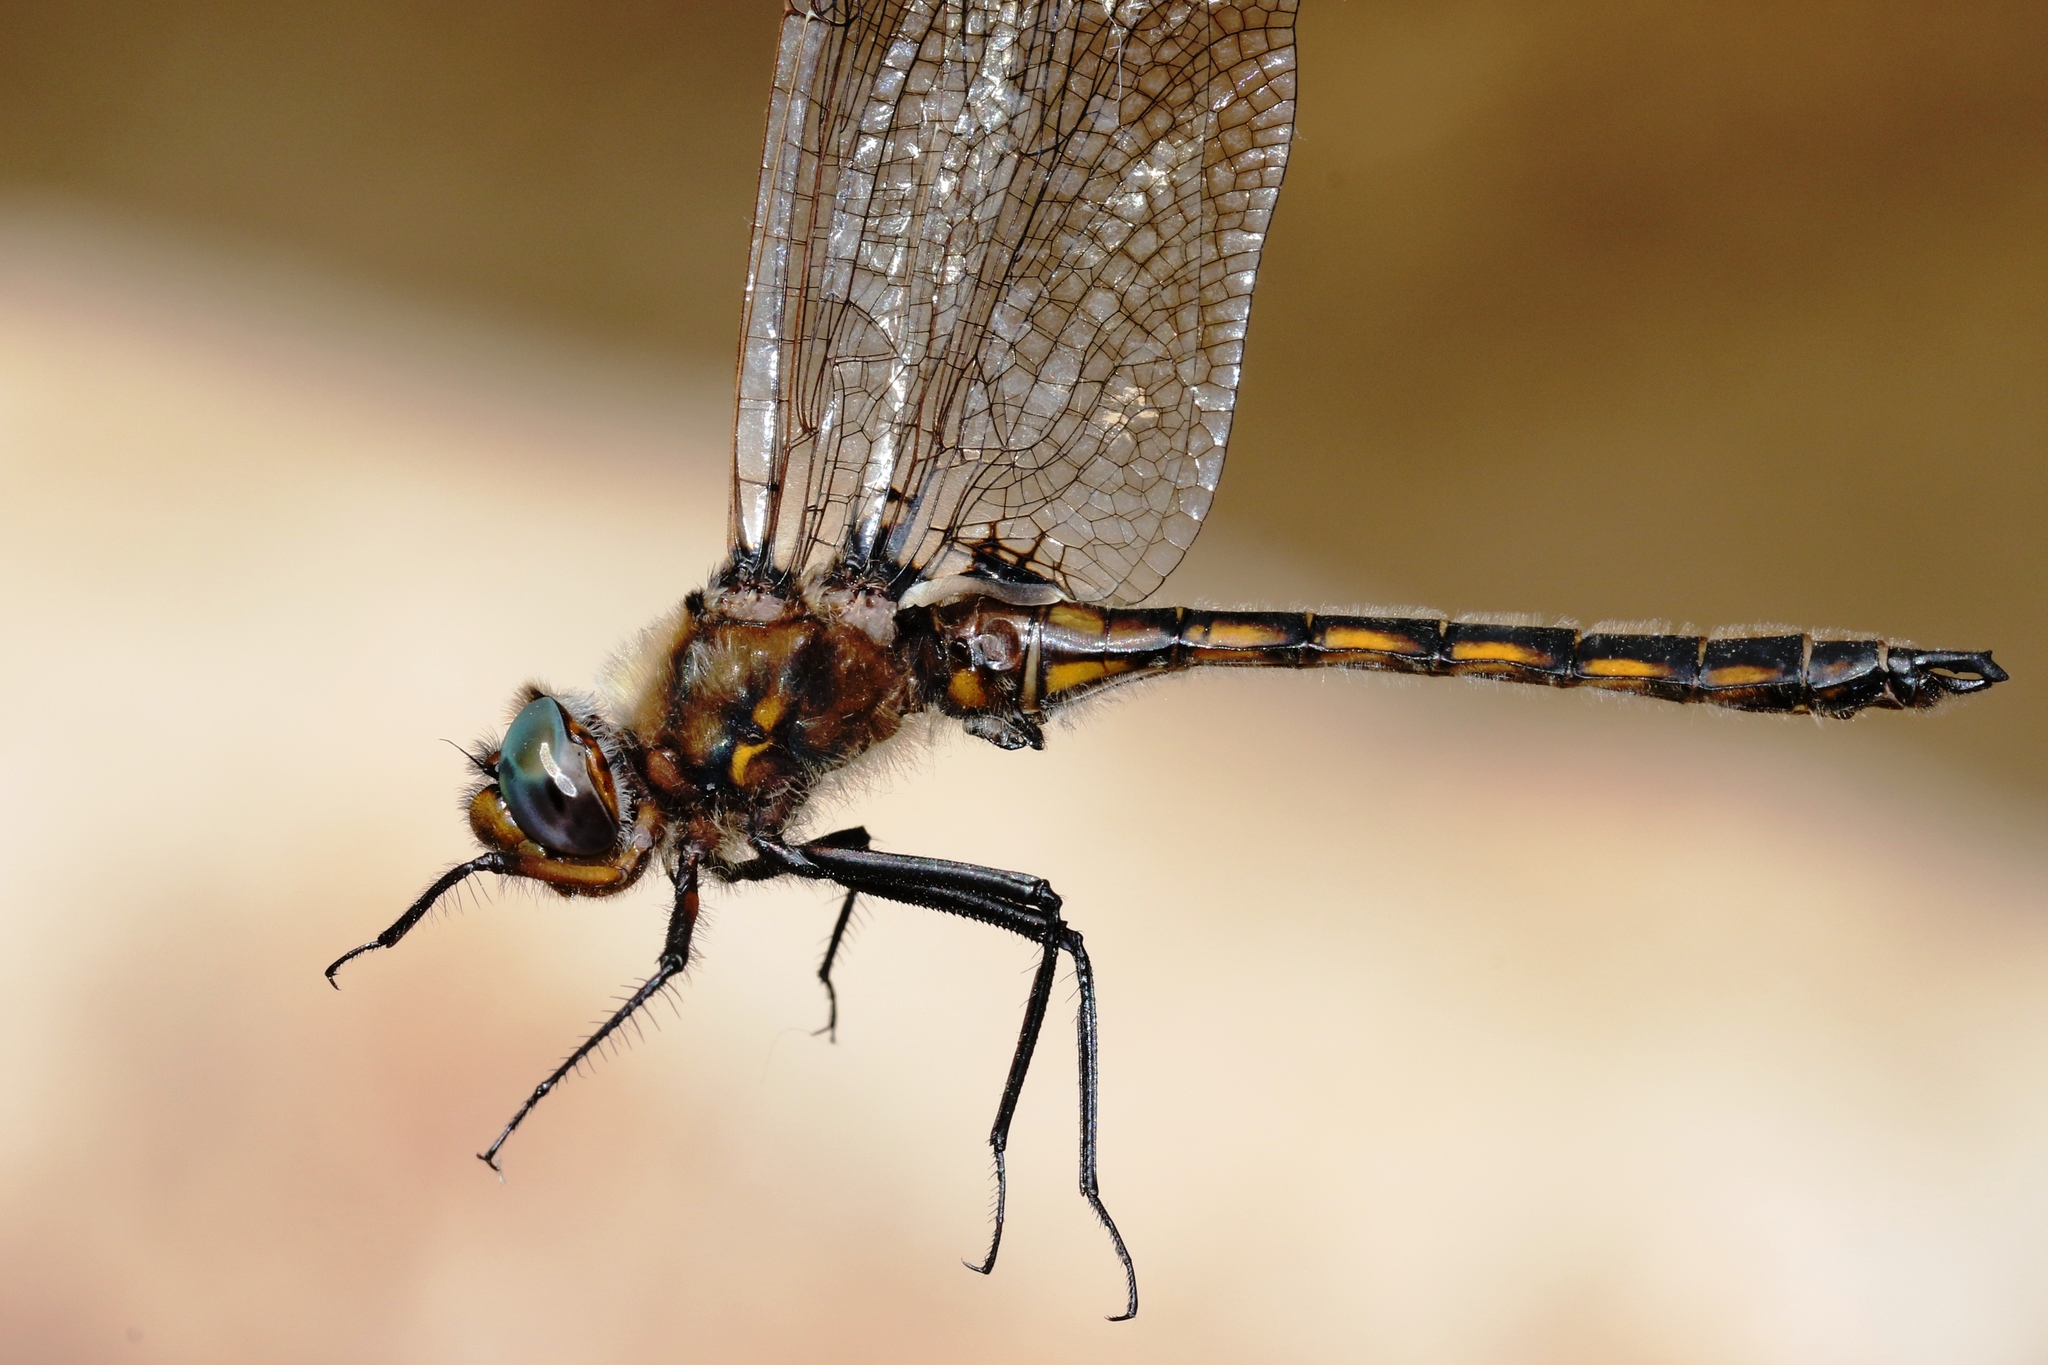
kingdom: Animalia
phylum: Arthropoda
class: Insecta
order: Odonata
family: Corduliidae
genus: Epitheca
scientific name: Epitheca canis
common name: Beaverpond baskettail
